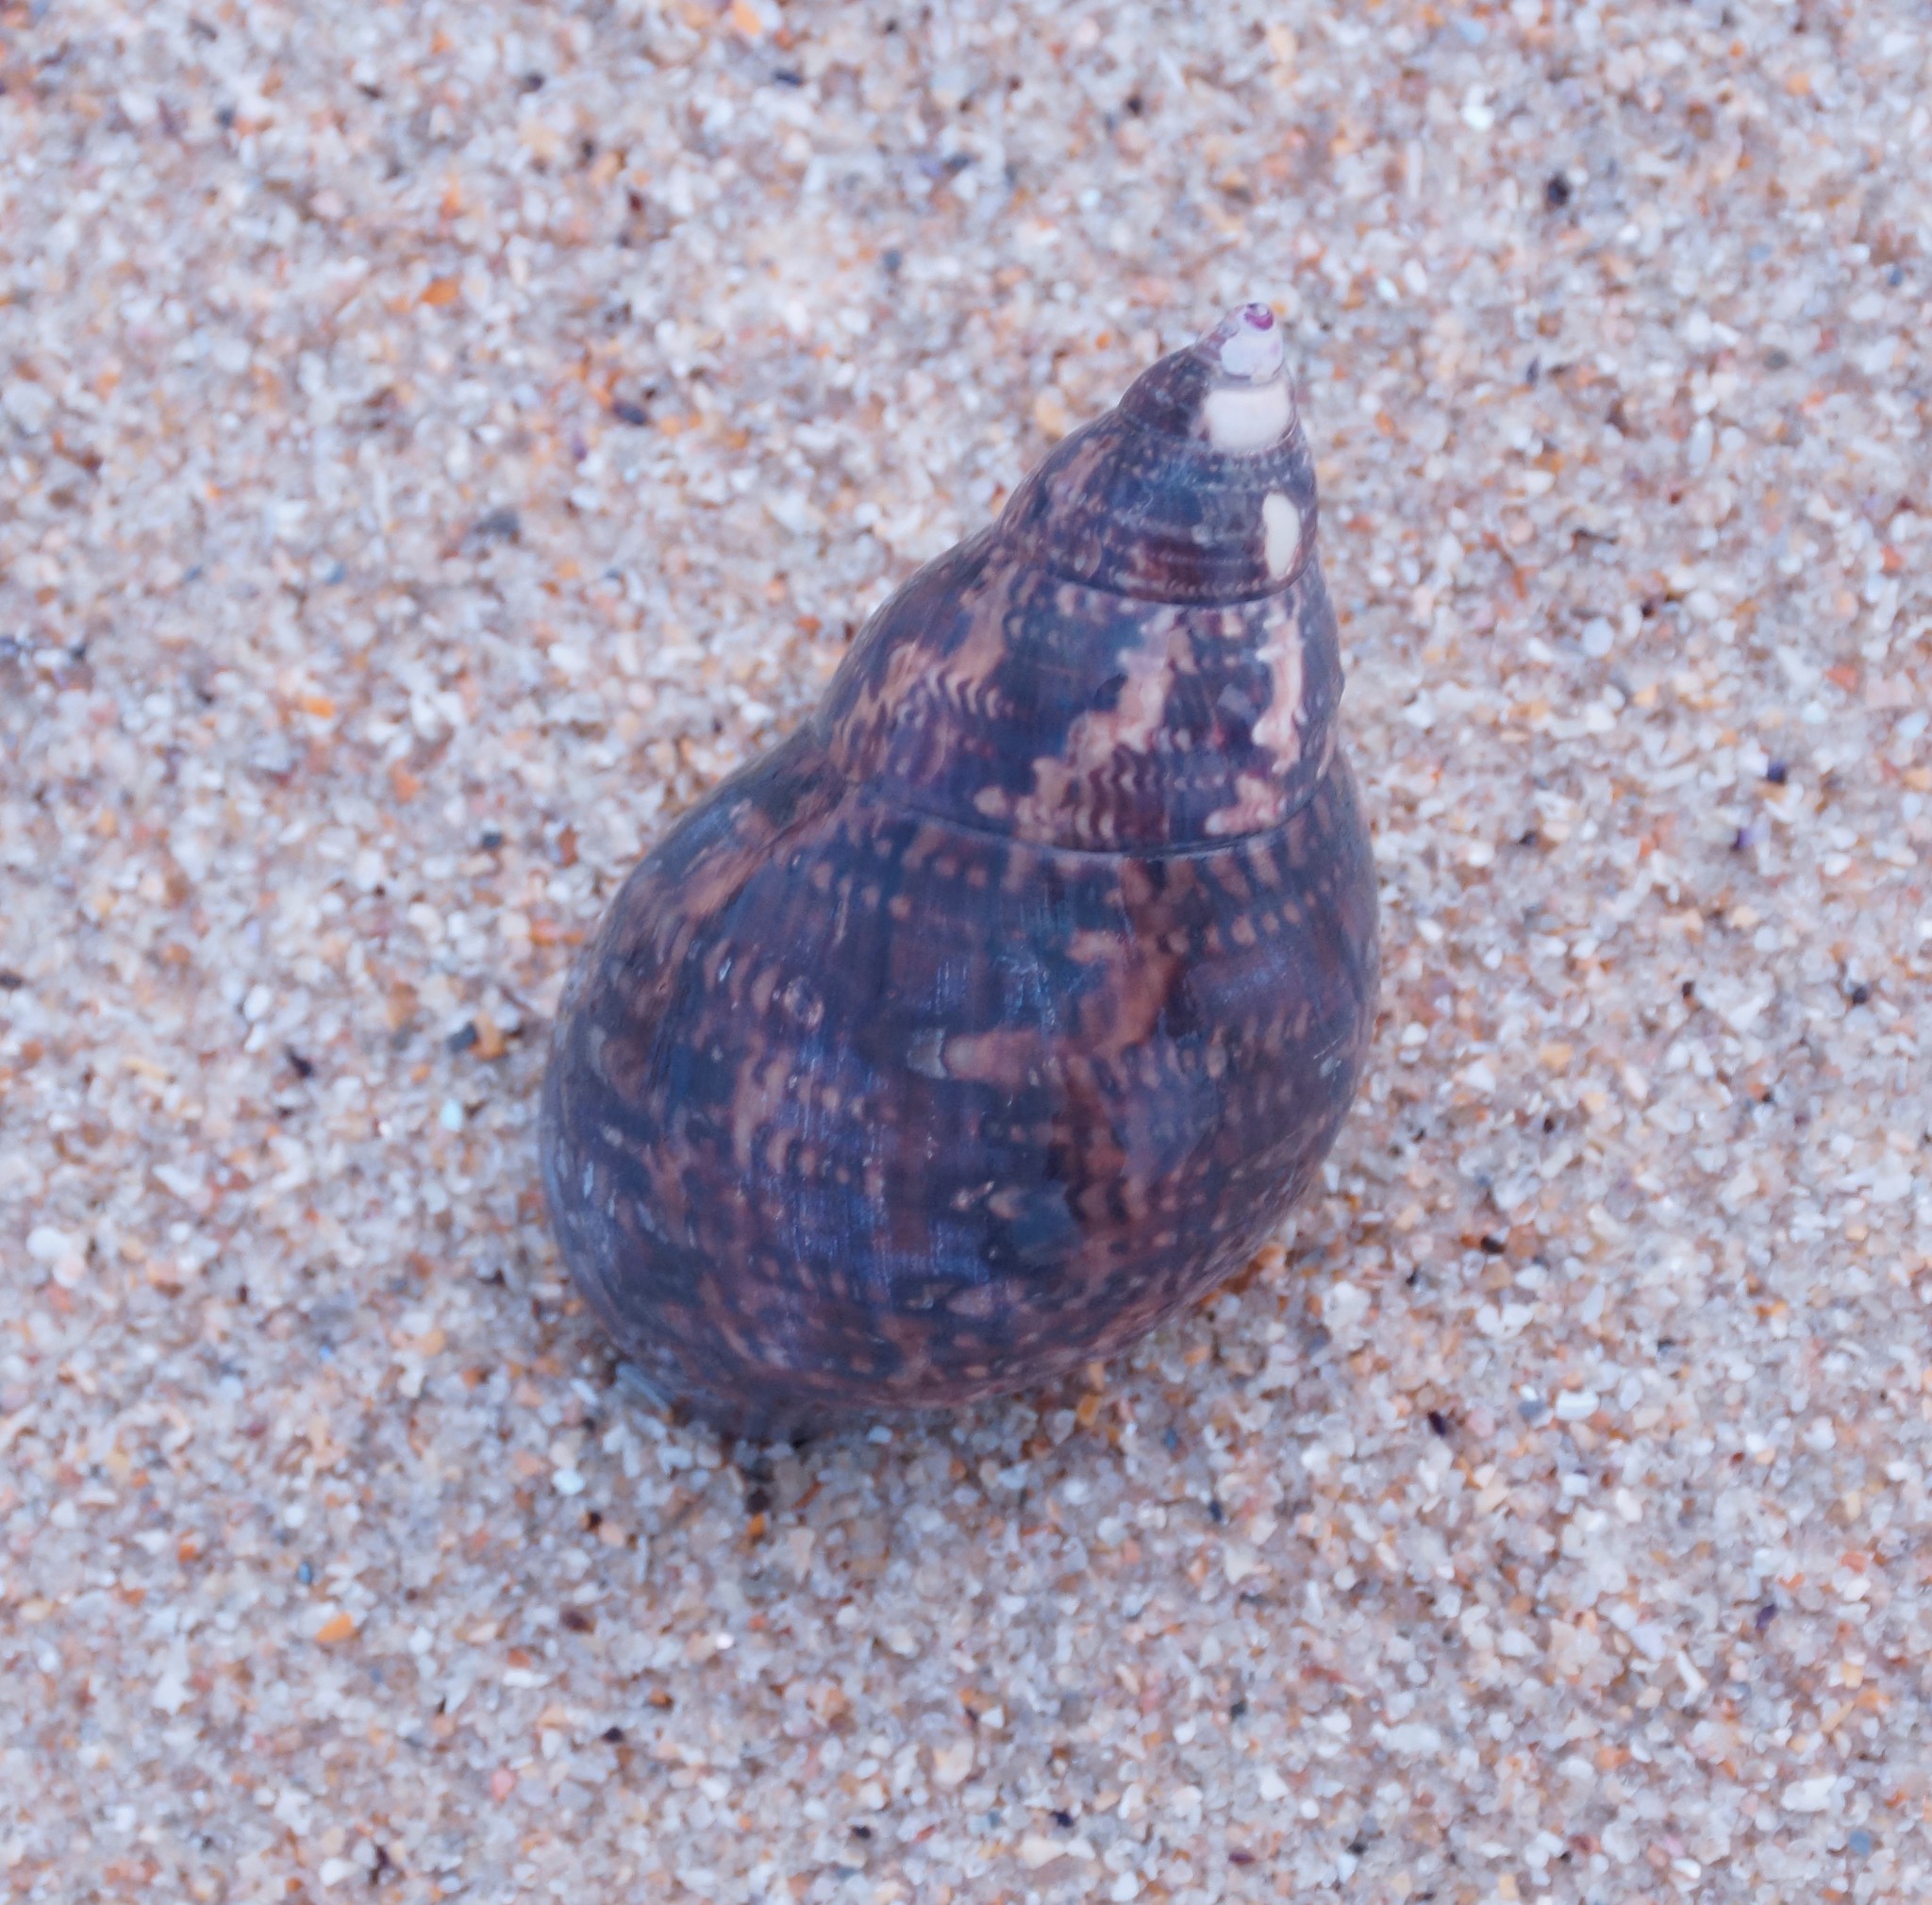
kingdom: Animalia
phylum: Mollusca
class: Gastropoda
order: Trochida
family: Phasianellidae
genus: Phasianella
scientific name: Phasianella australis
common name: Painted lady
